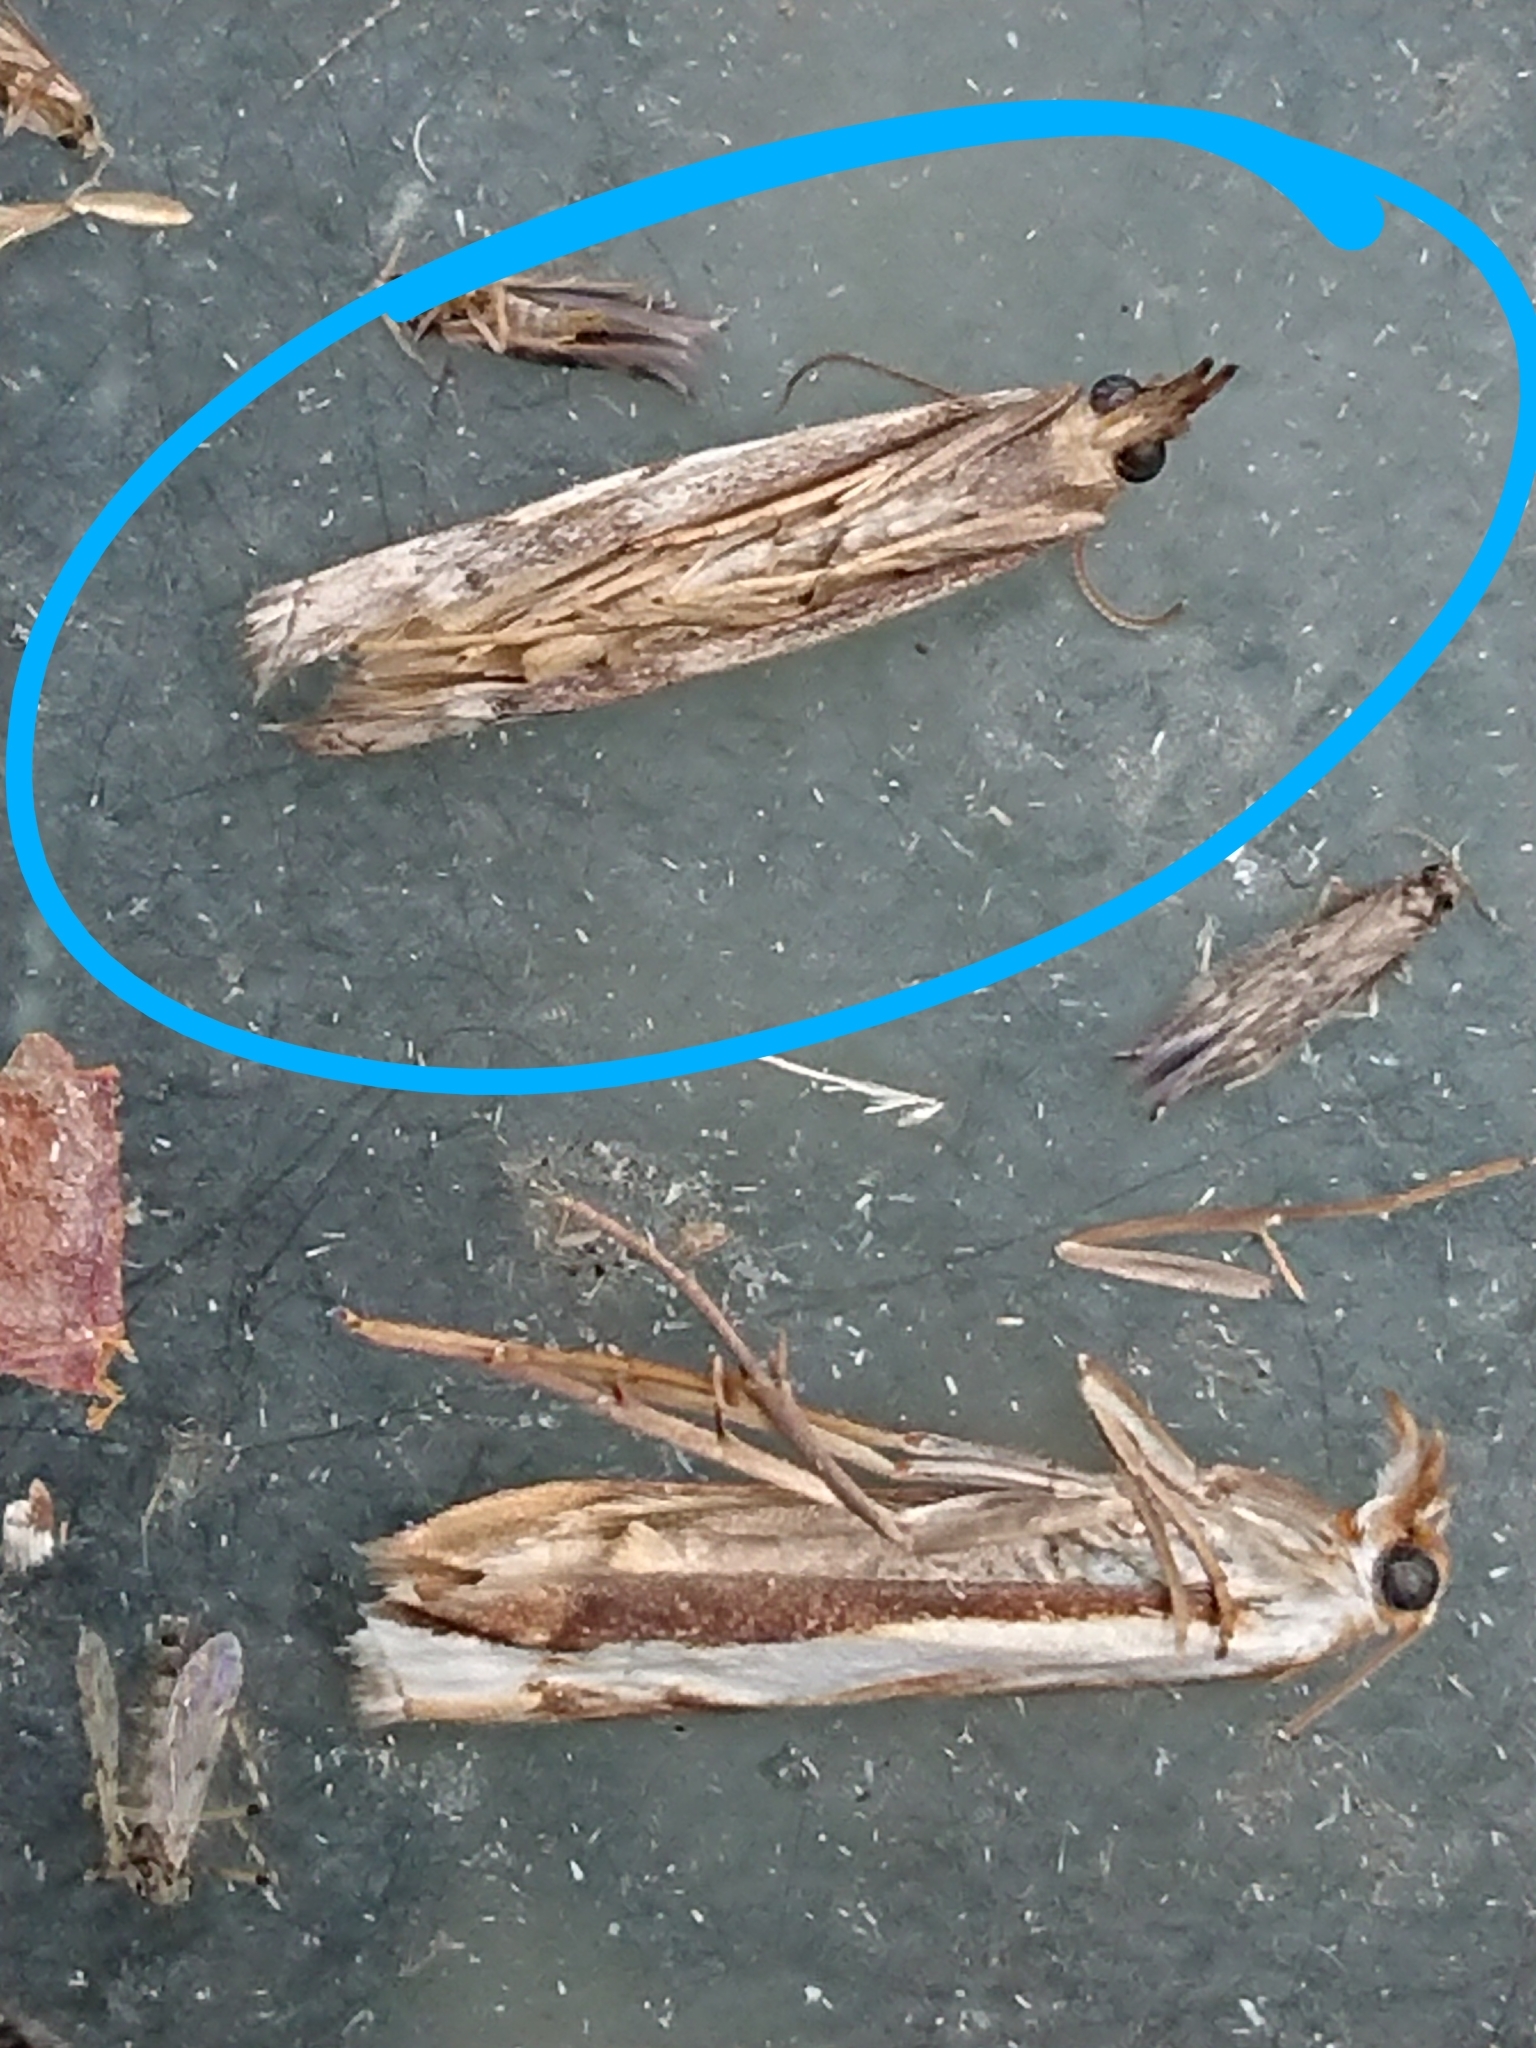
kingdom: Animalia
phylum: Arthropoda
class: Insecta
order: Lepidoptera
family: Crambidae
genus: Orocrambus
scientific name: Orocrambus vulgaris
